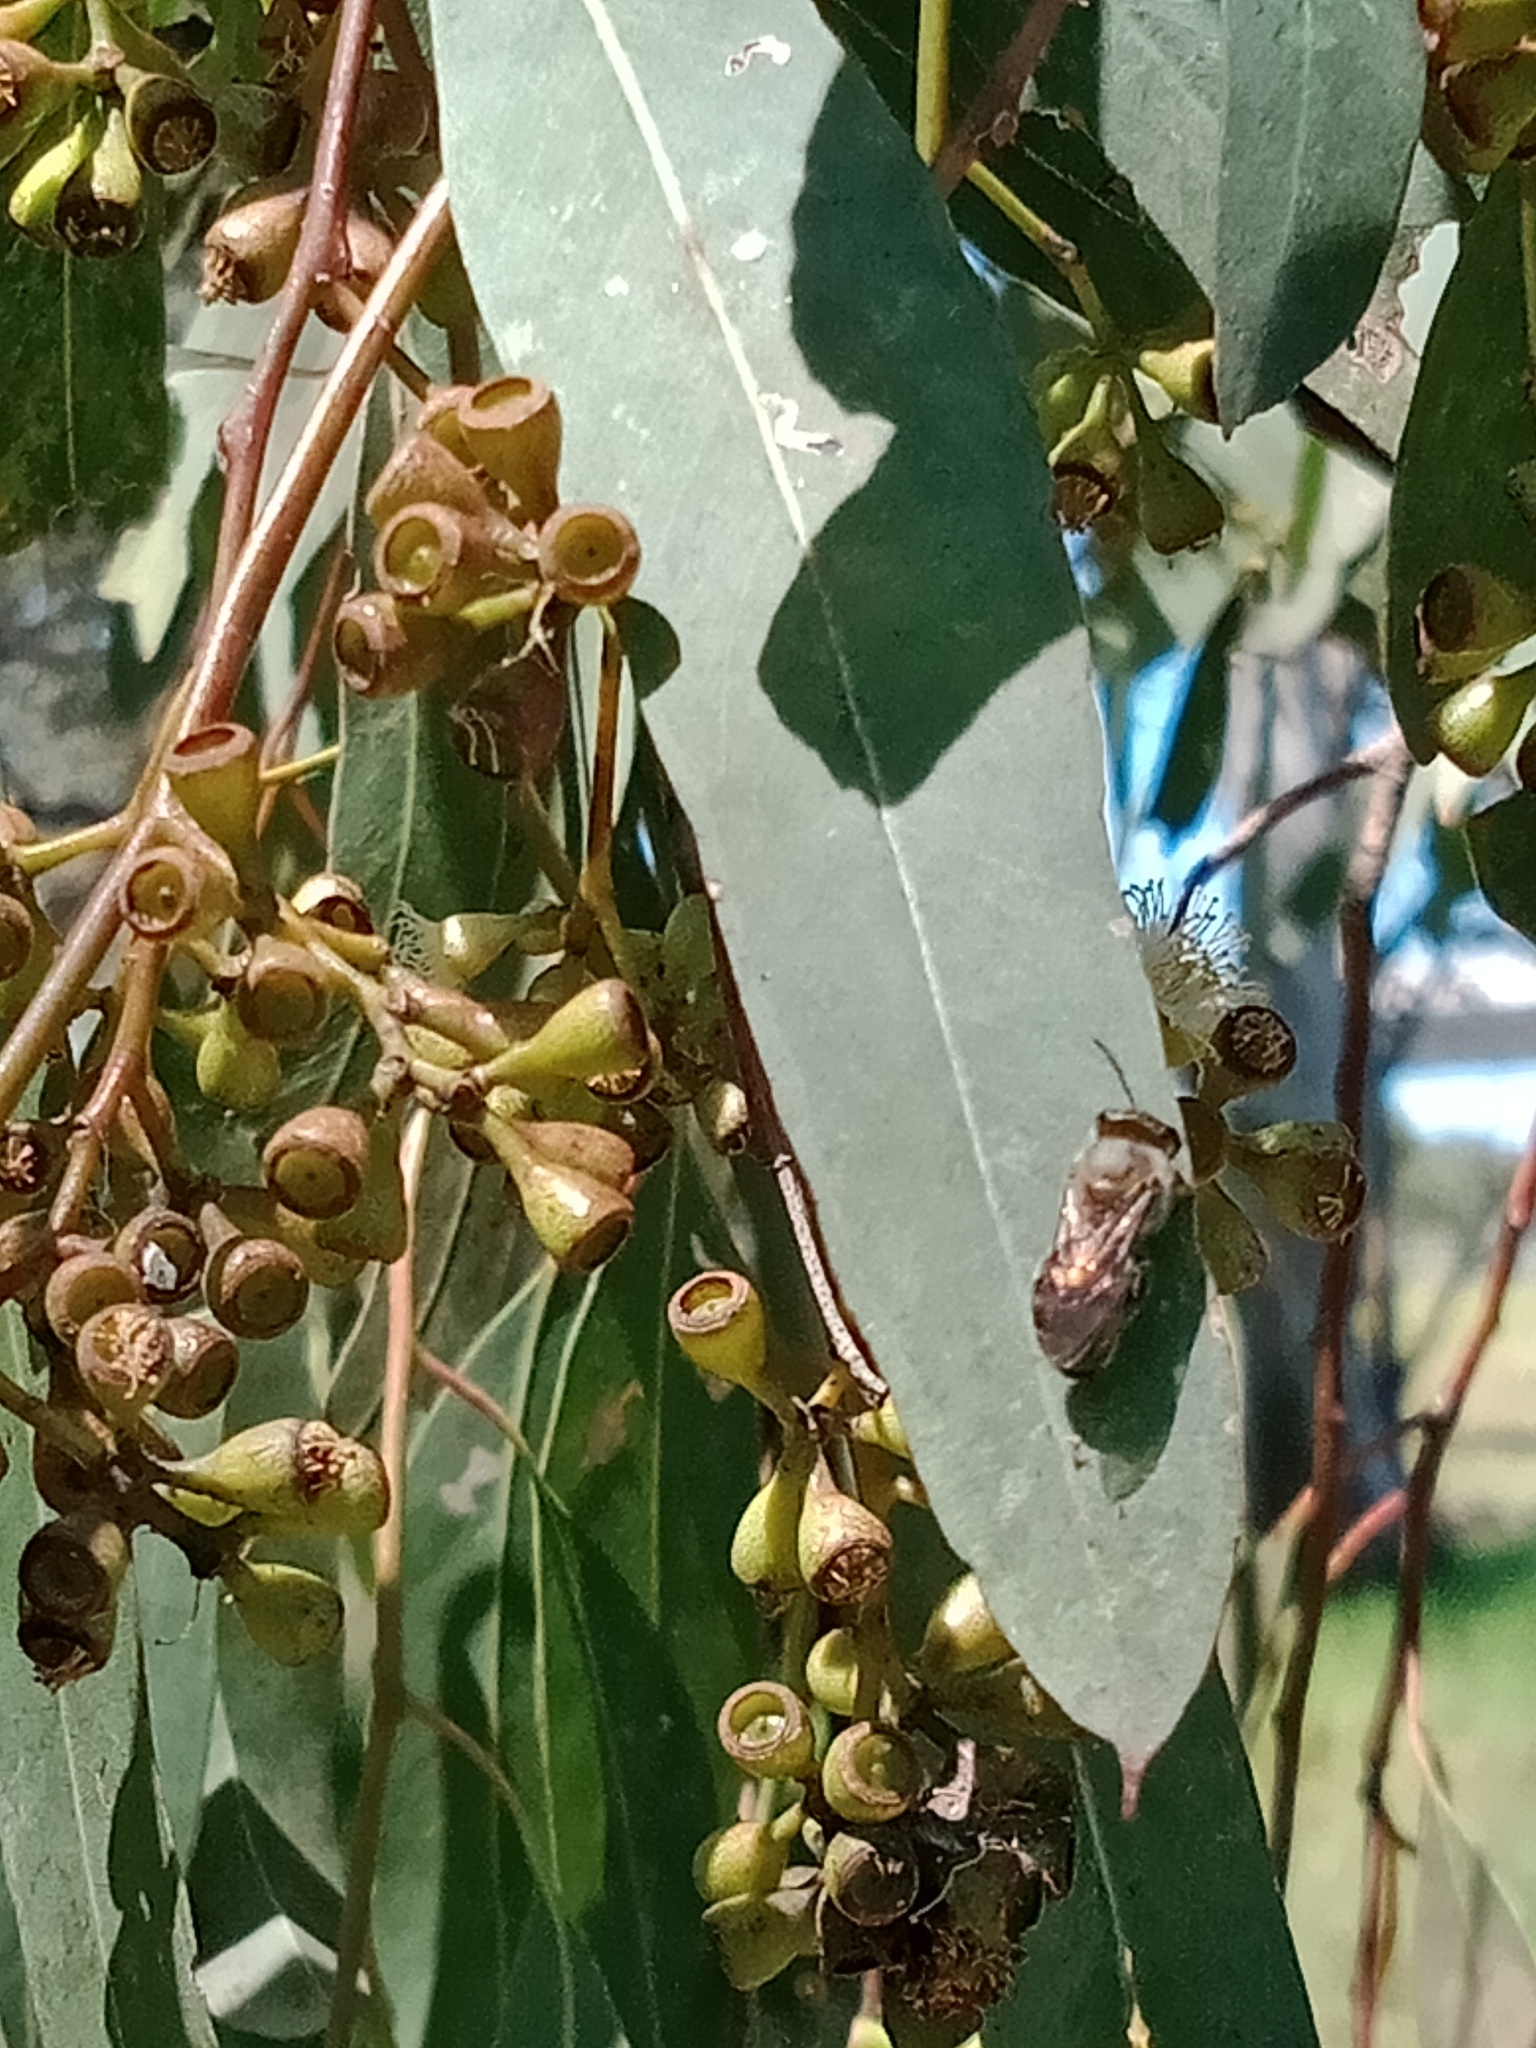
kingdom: Animalia
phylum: Arthropoda
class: Insecta
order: Hymenoptera
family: Colletidae
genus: Leioproctus
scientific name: Leioproctus clarki
